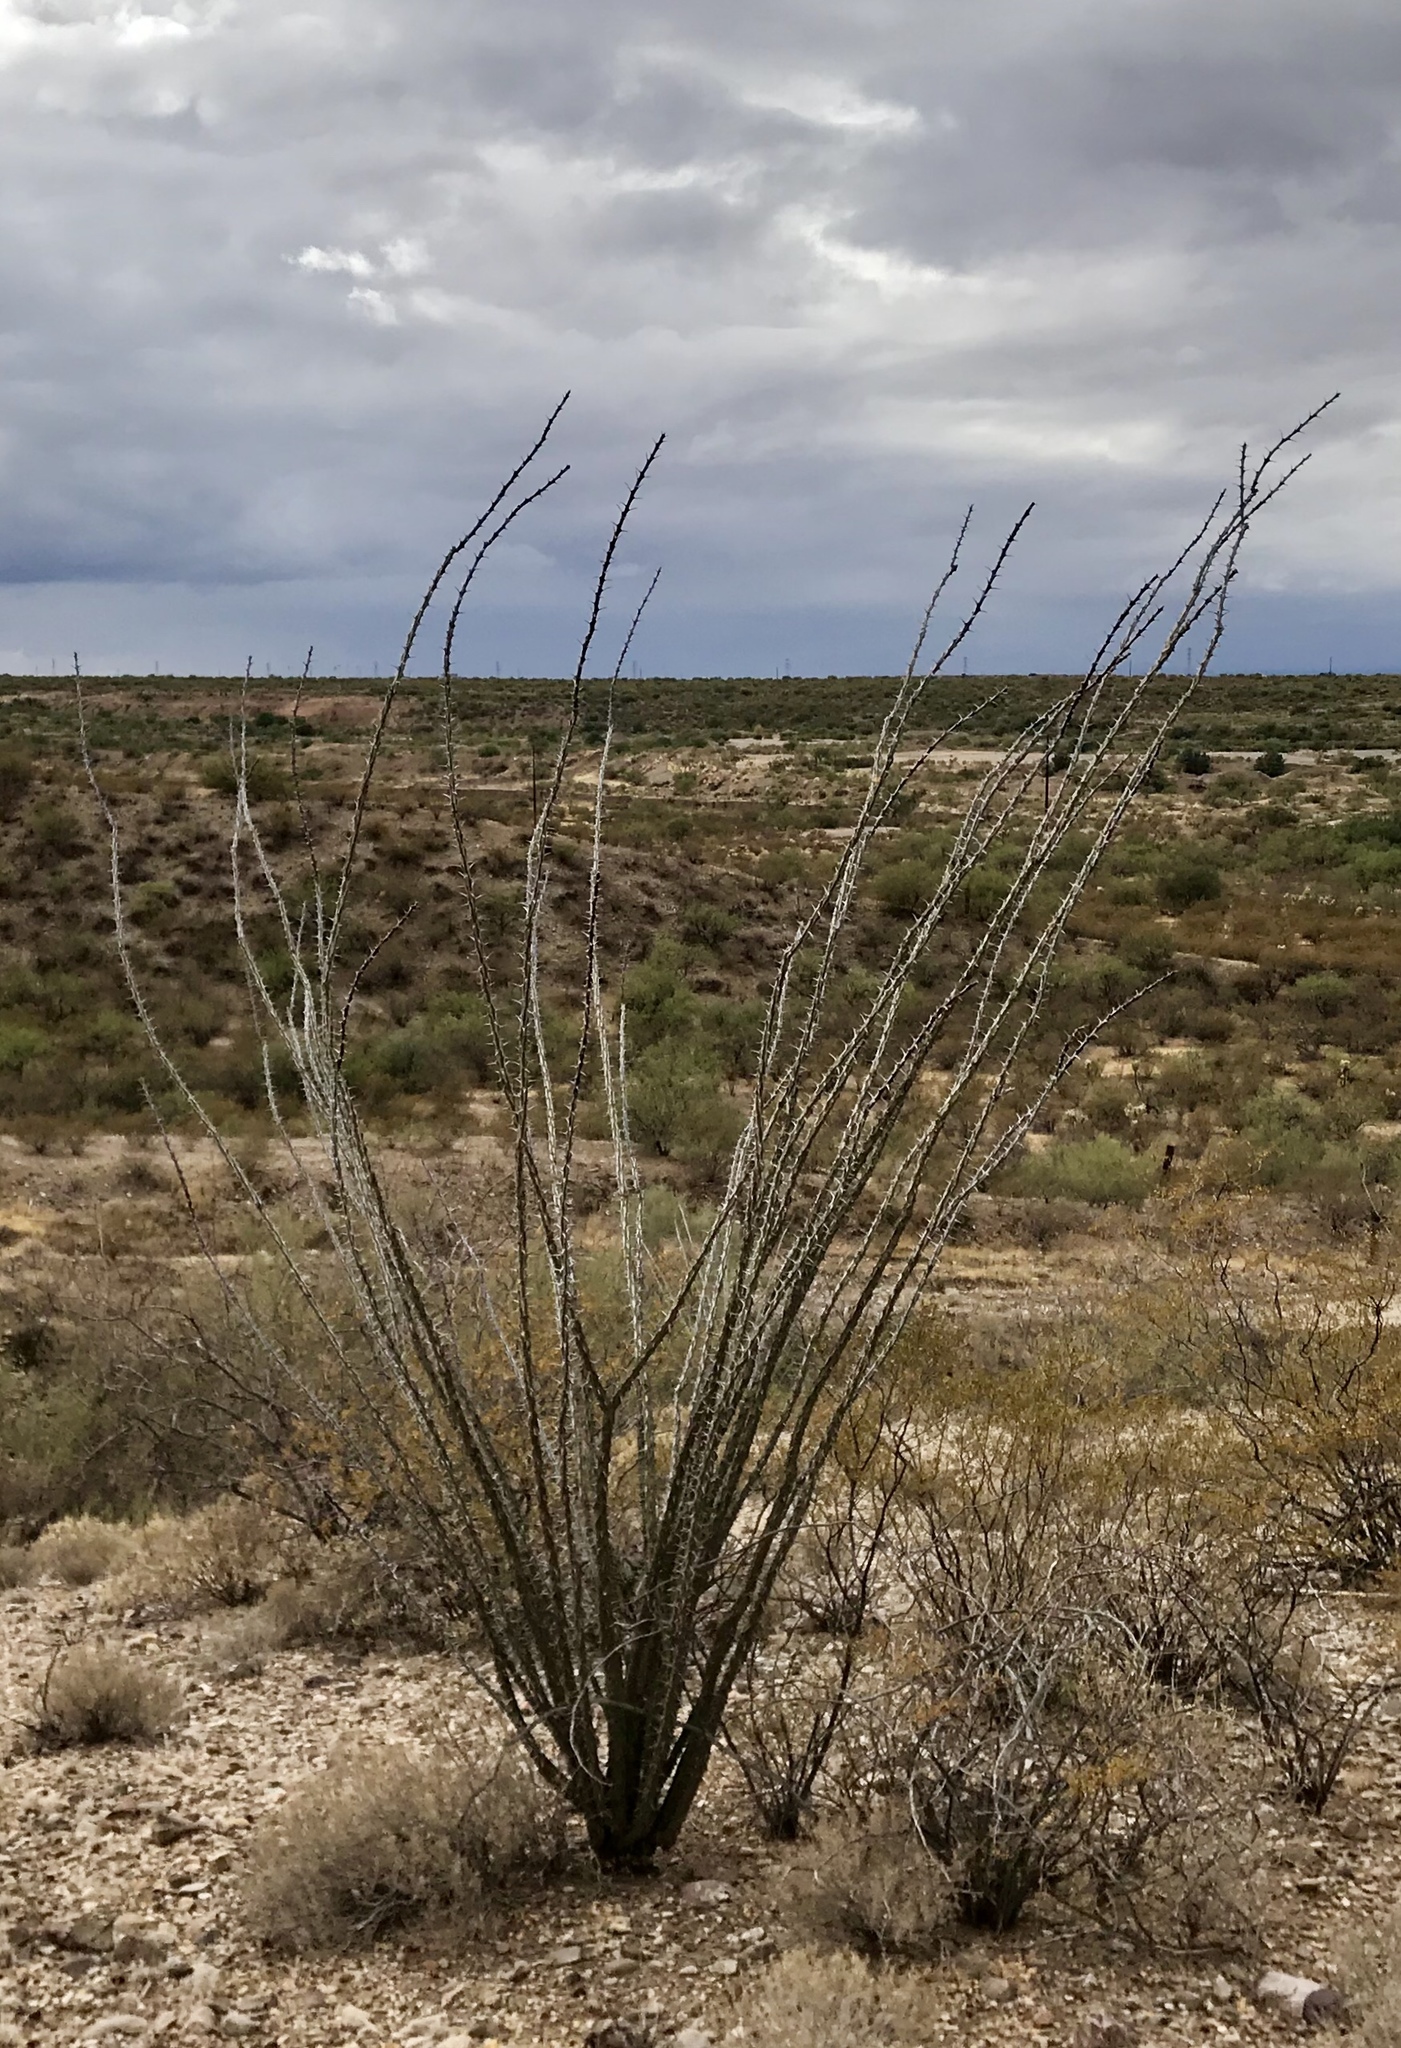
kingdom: Plantae
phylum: Tracheophyta
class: Magnoliopsida
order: Ericales
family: Fouquieriaceae
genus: Fouquieria
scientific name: Fouquieria splendens
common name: Vine-cactus
